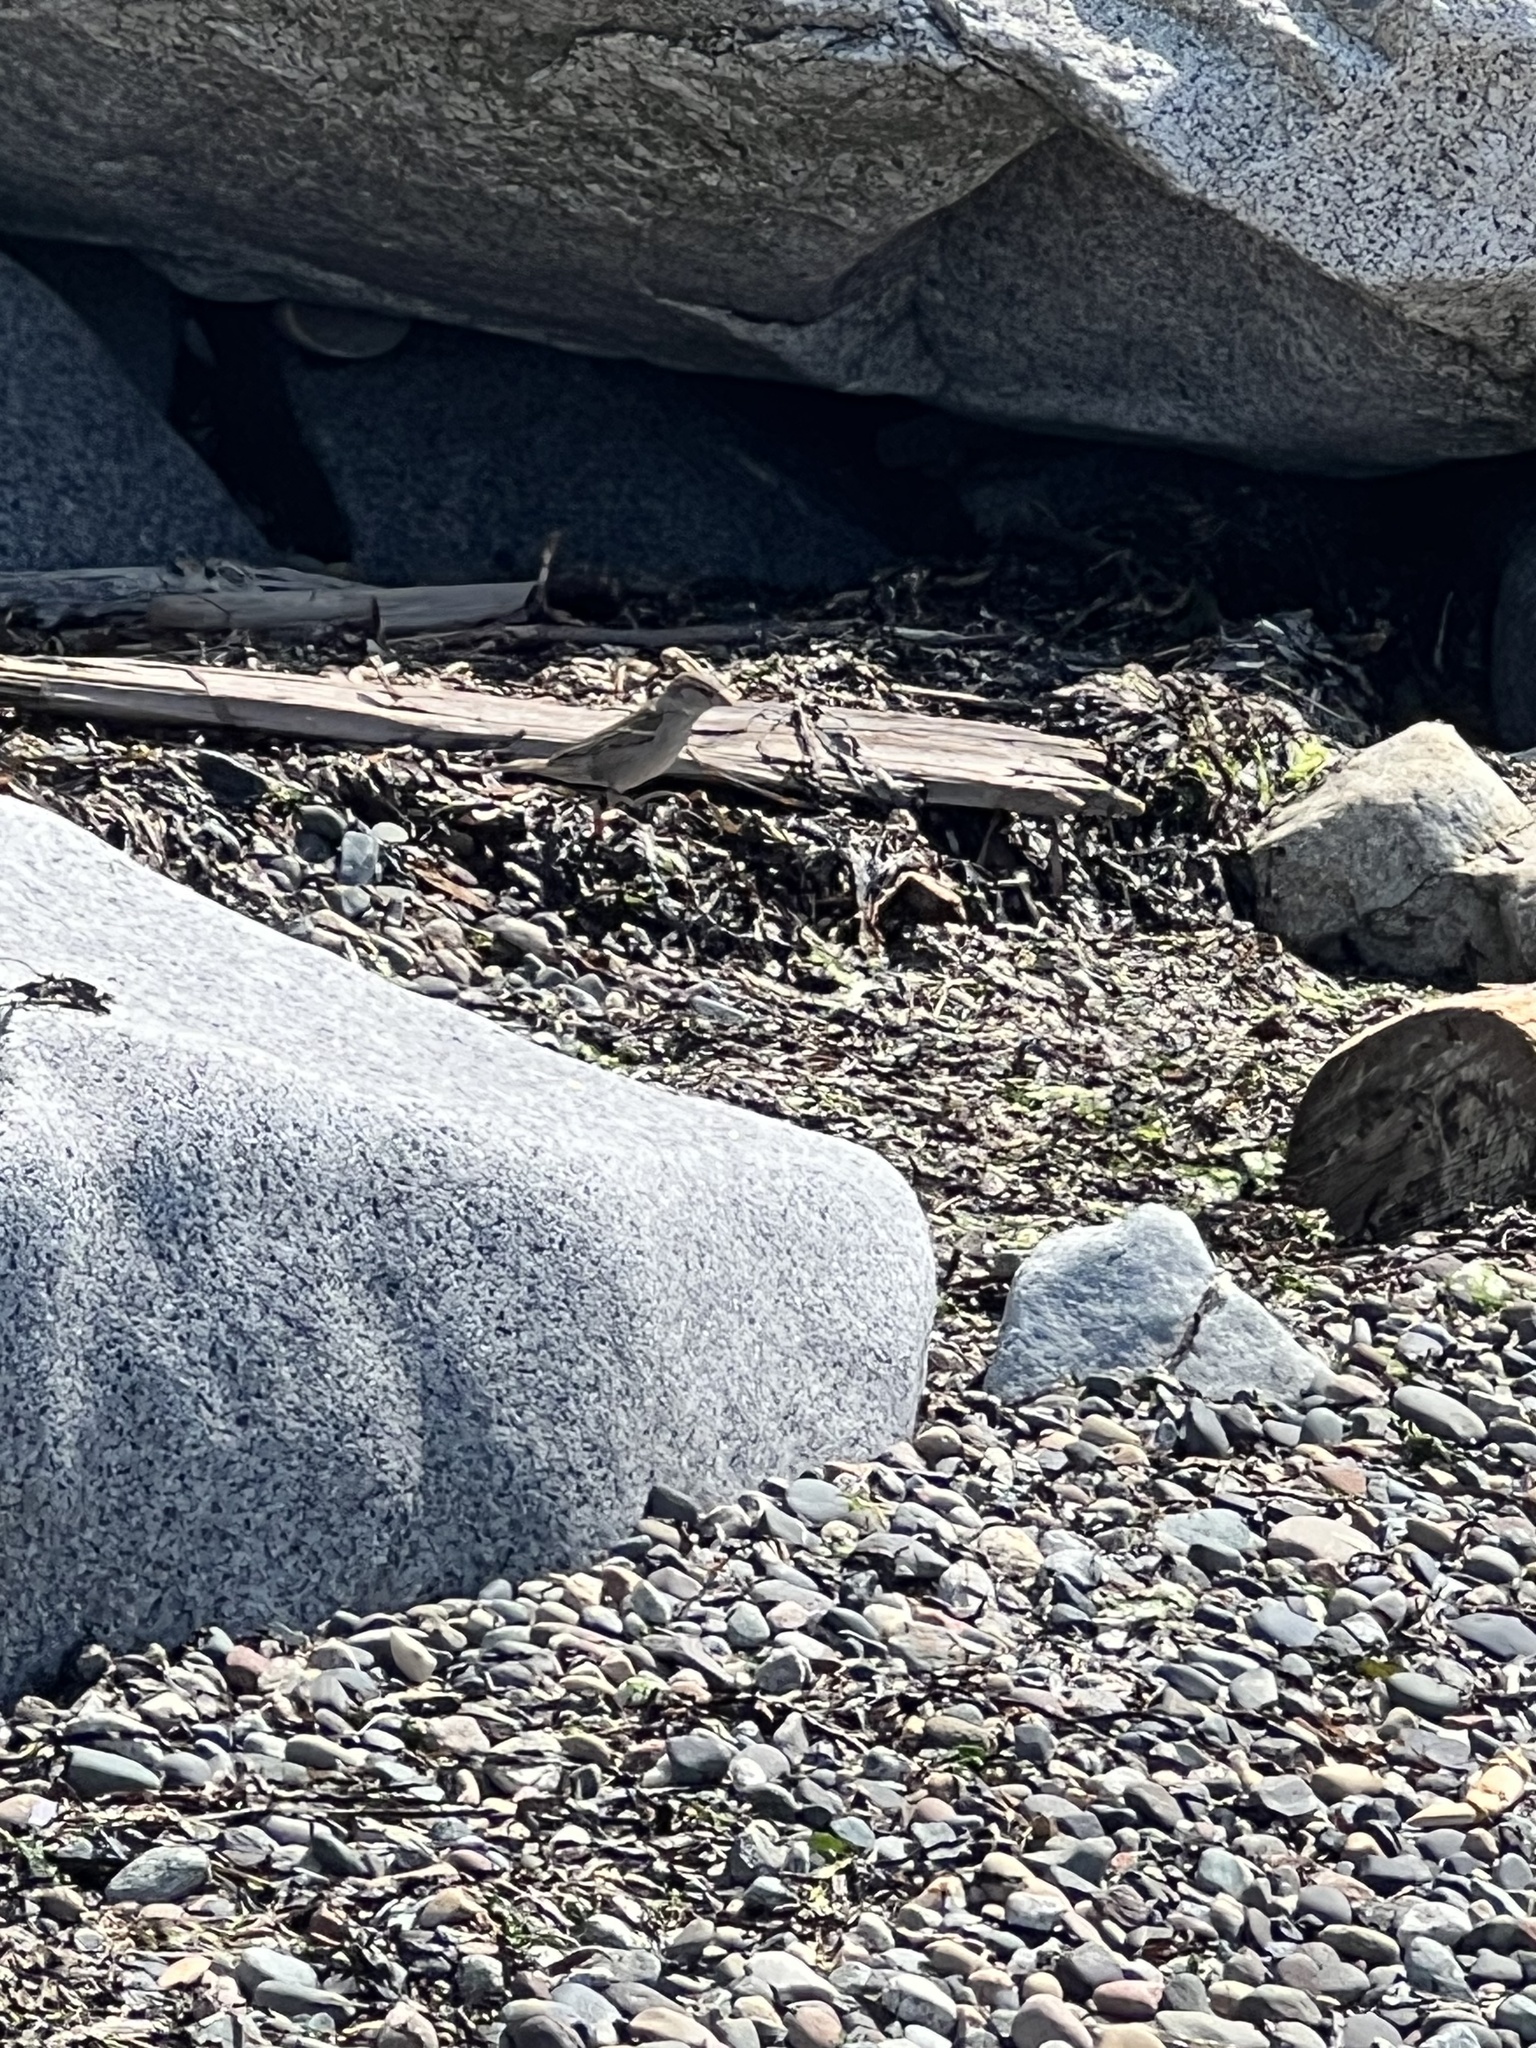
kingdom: Animalia
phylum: Chordata
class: Aves
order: Passeriformes
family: Passeridae
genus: Passer
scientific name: Passer domesticus
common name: House sparrow
